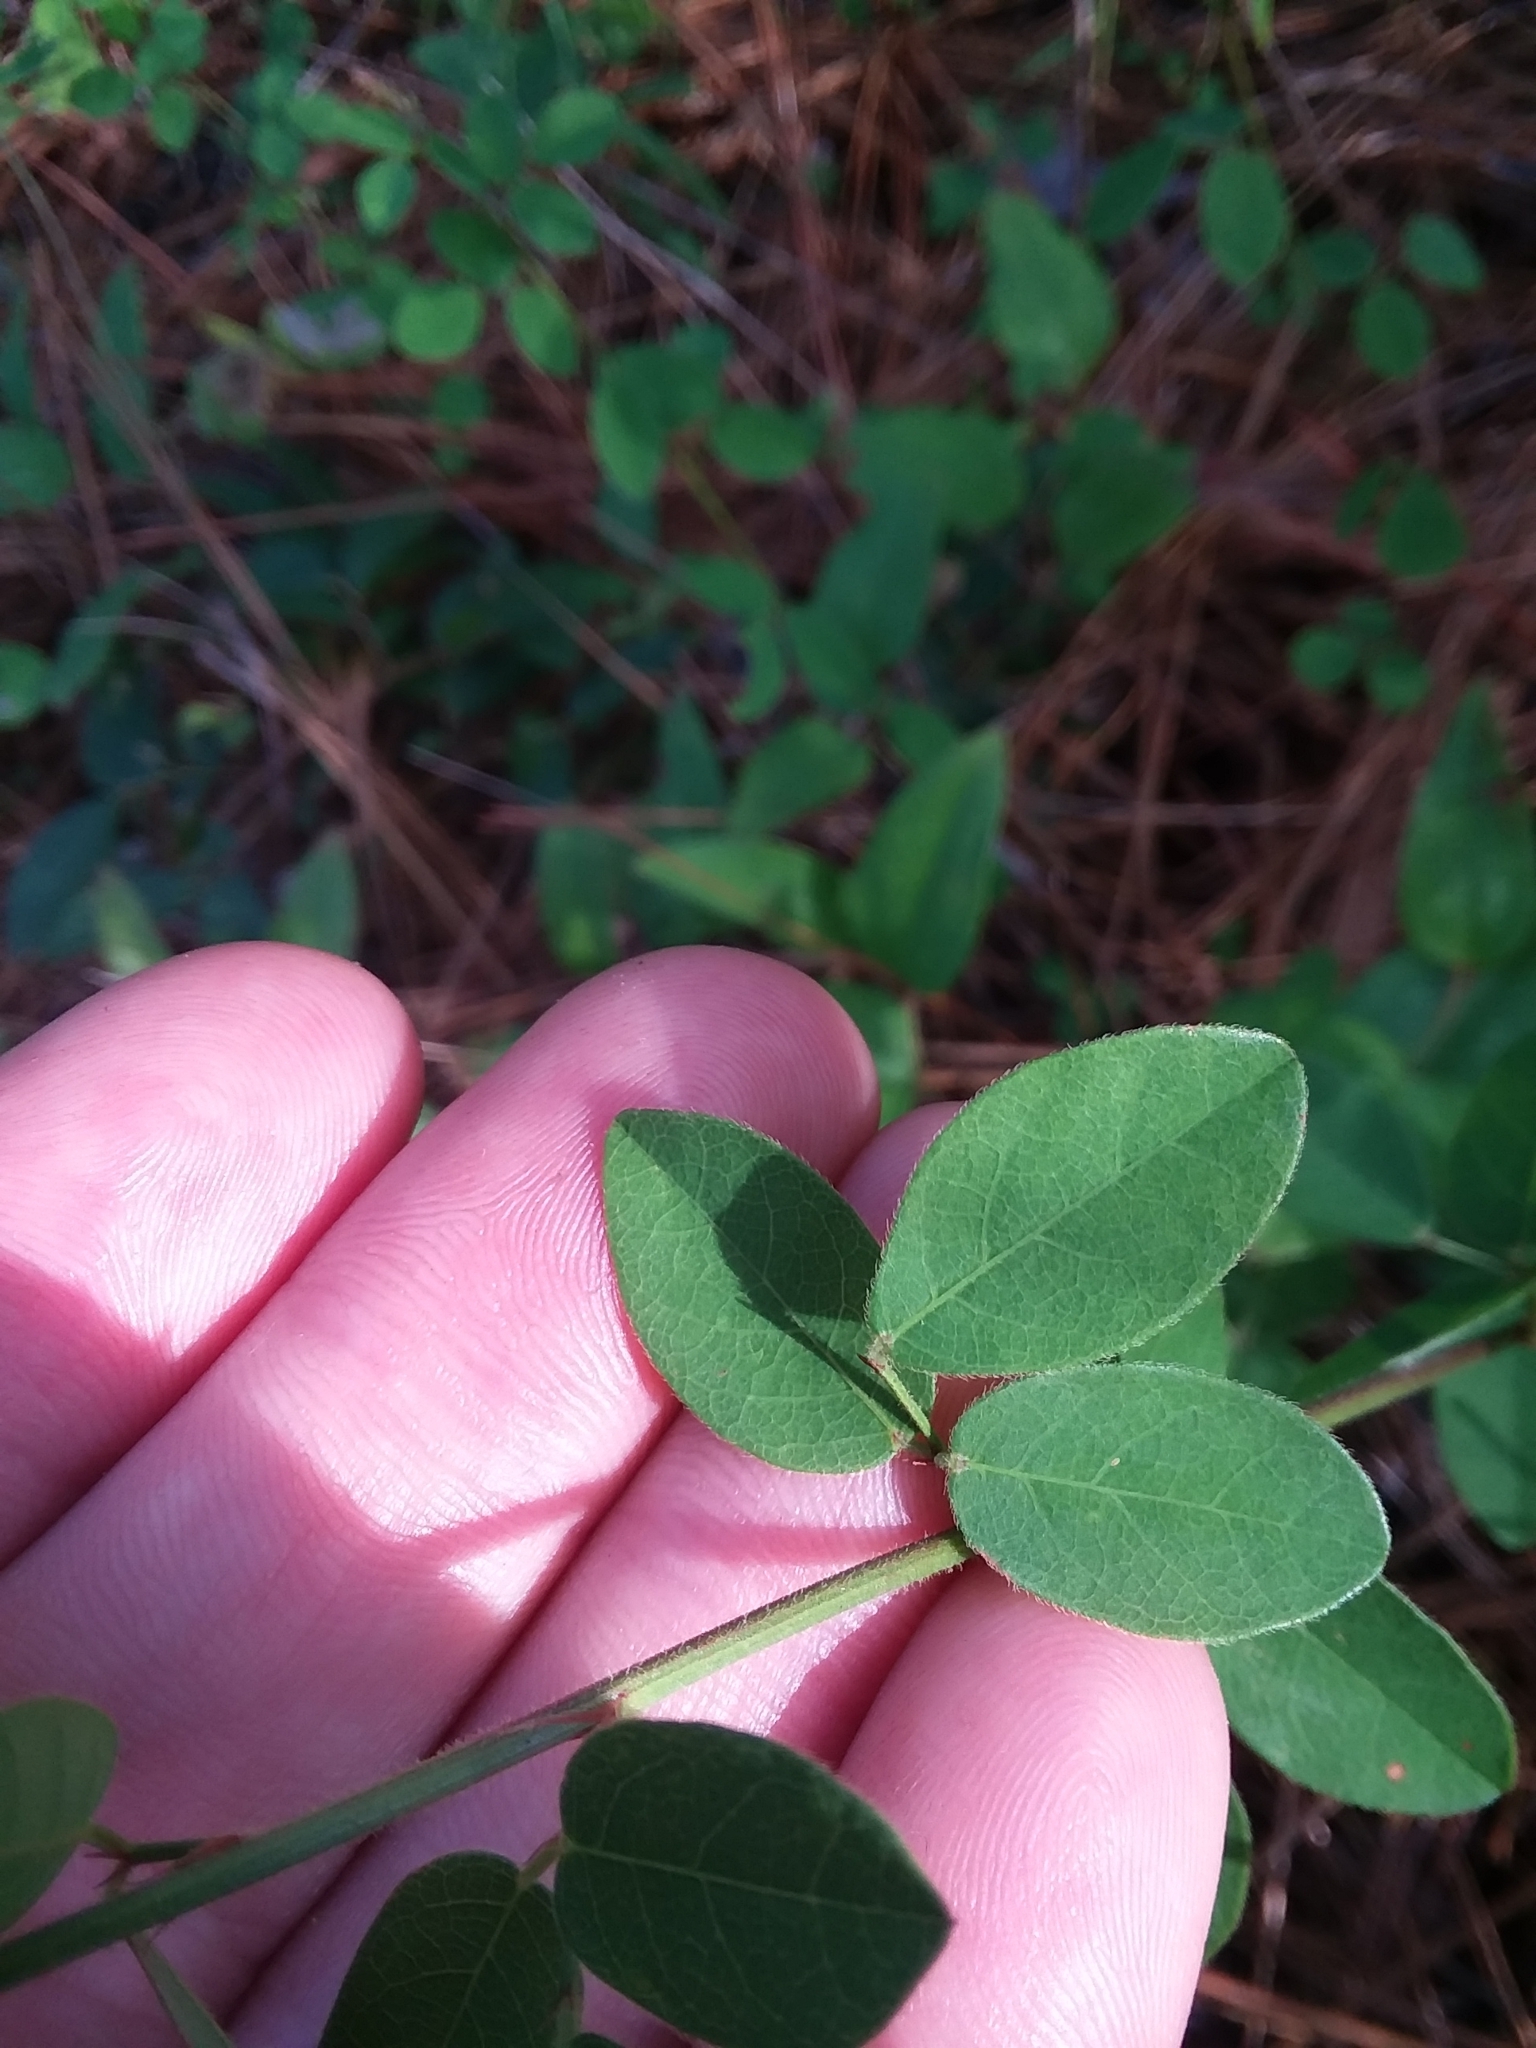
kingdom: Plantae
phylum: Tracheophyta
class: Magnoliopsida
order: Fabales
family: Fabaceae
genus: Desmodium
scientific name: Desmodium ciliare
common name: Hairy small-leaf ticktrefoil
